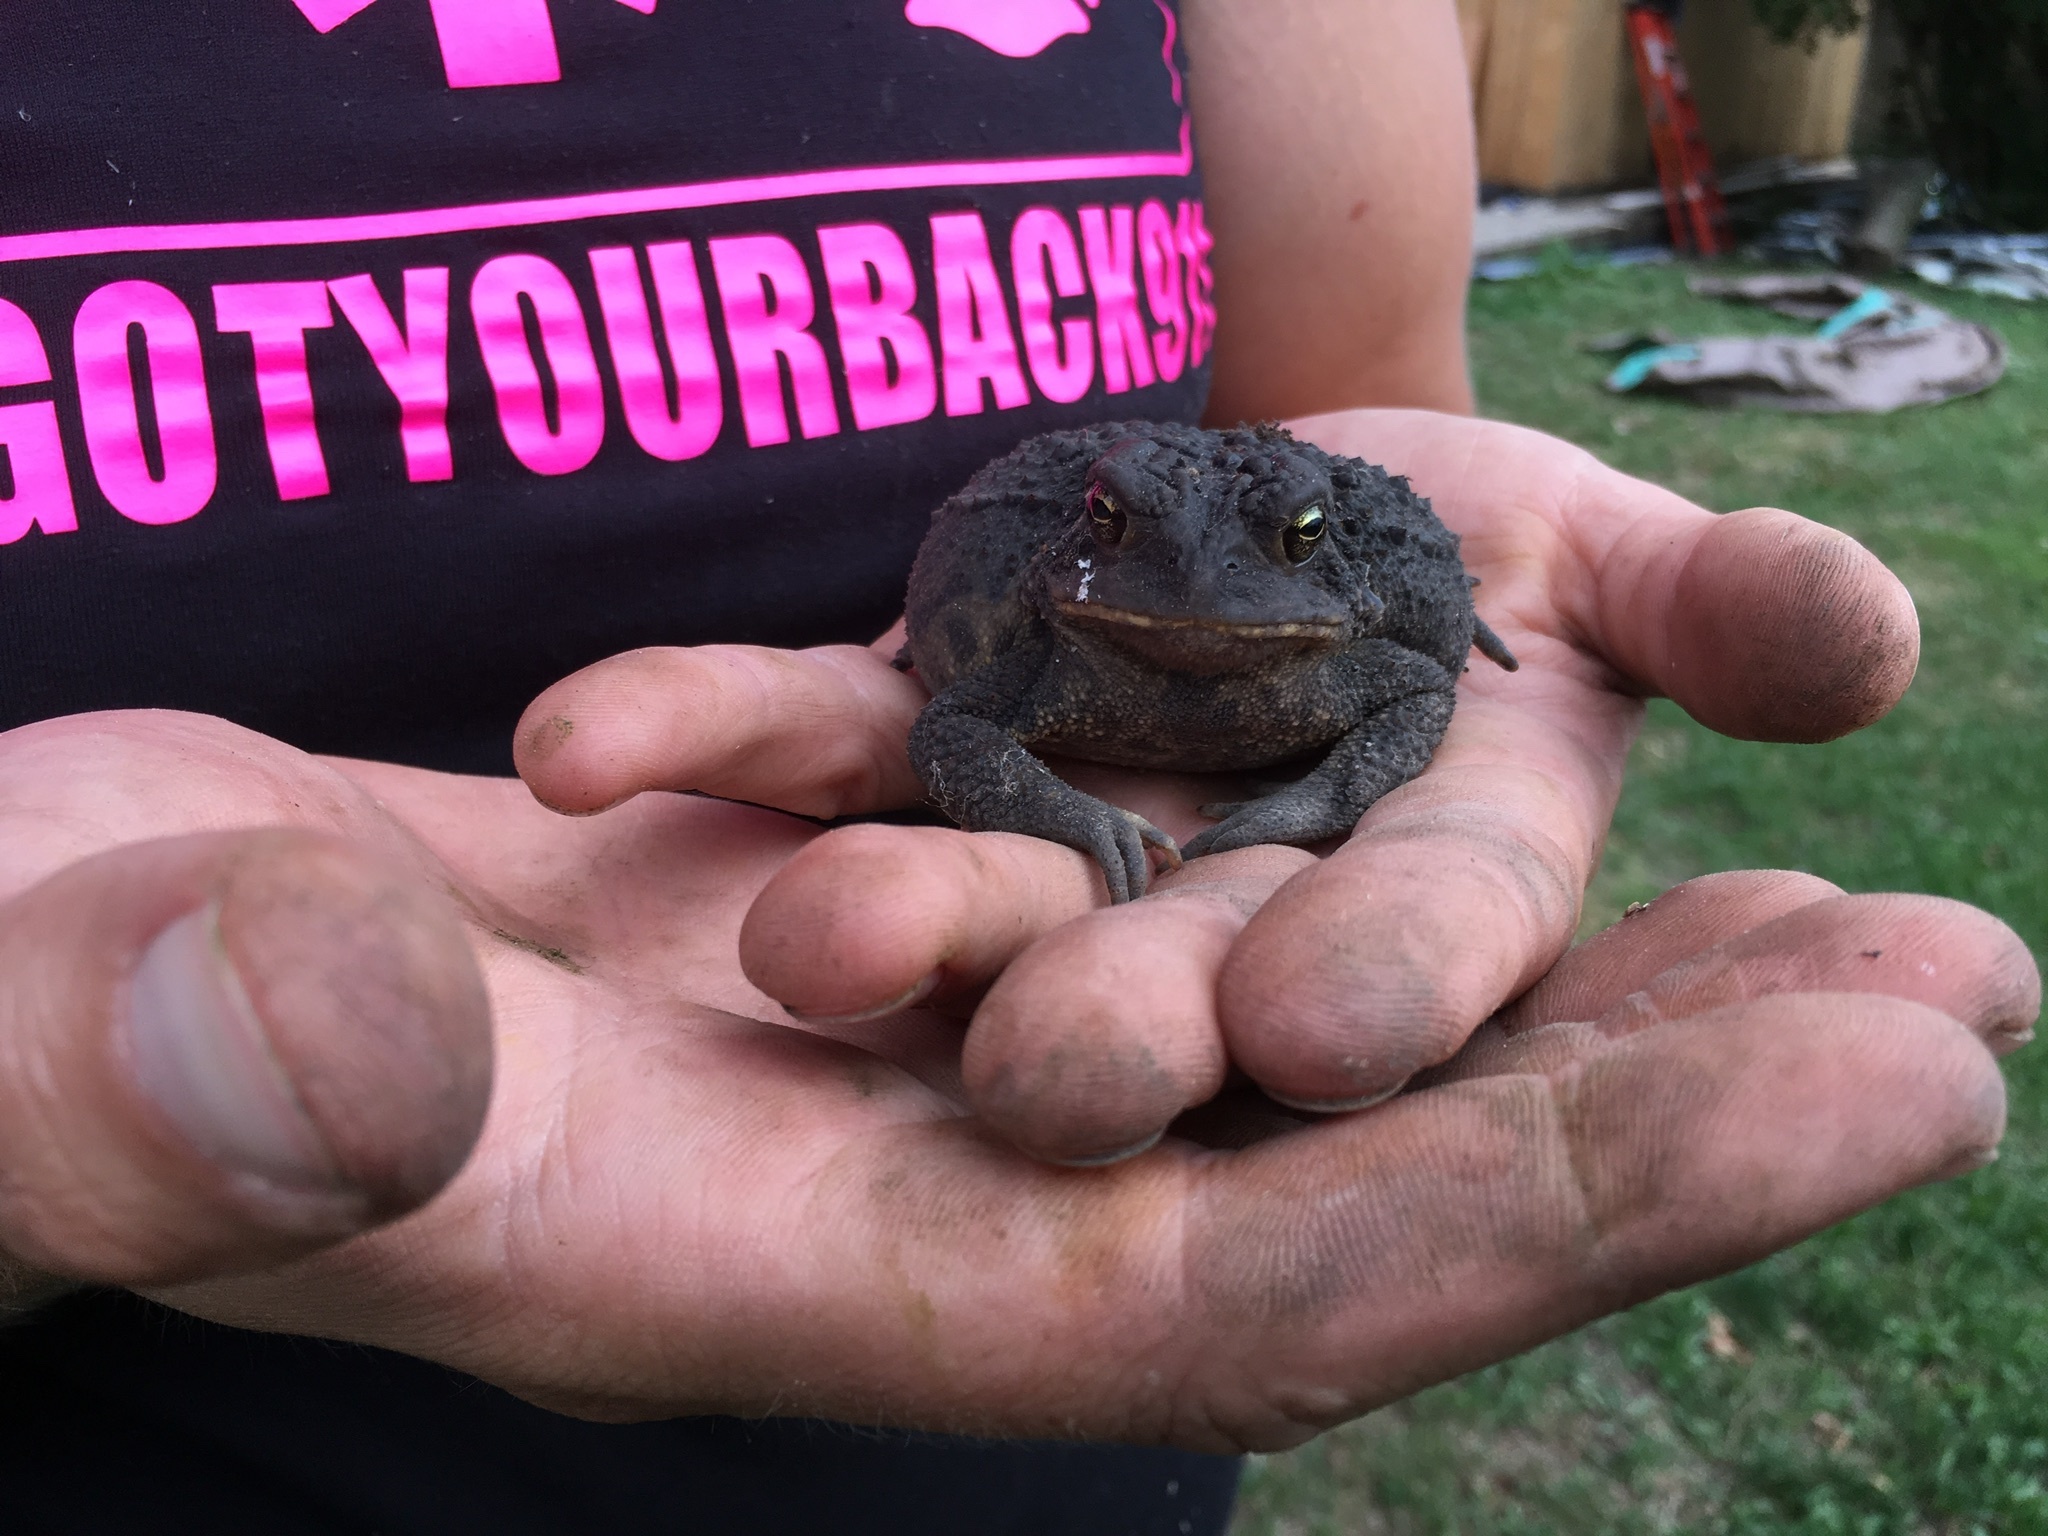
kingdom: Animalia
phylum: Chordata
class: Amphibia
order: Anura
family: Bufonidae
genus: Anaxyrus
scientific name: Anaxyrus americanus
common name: American toad
